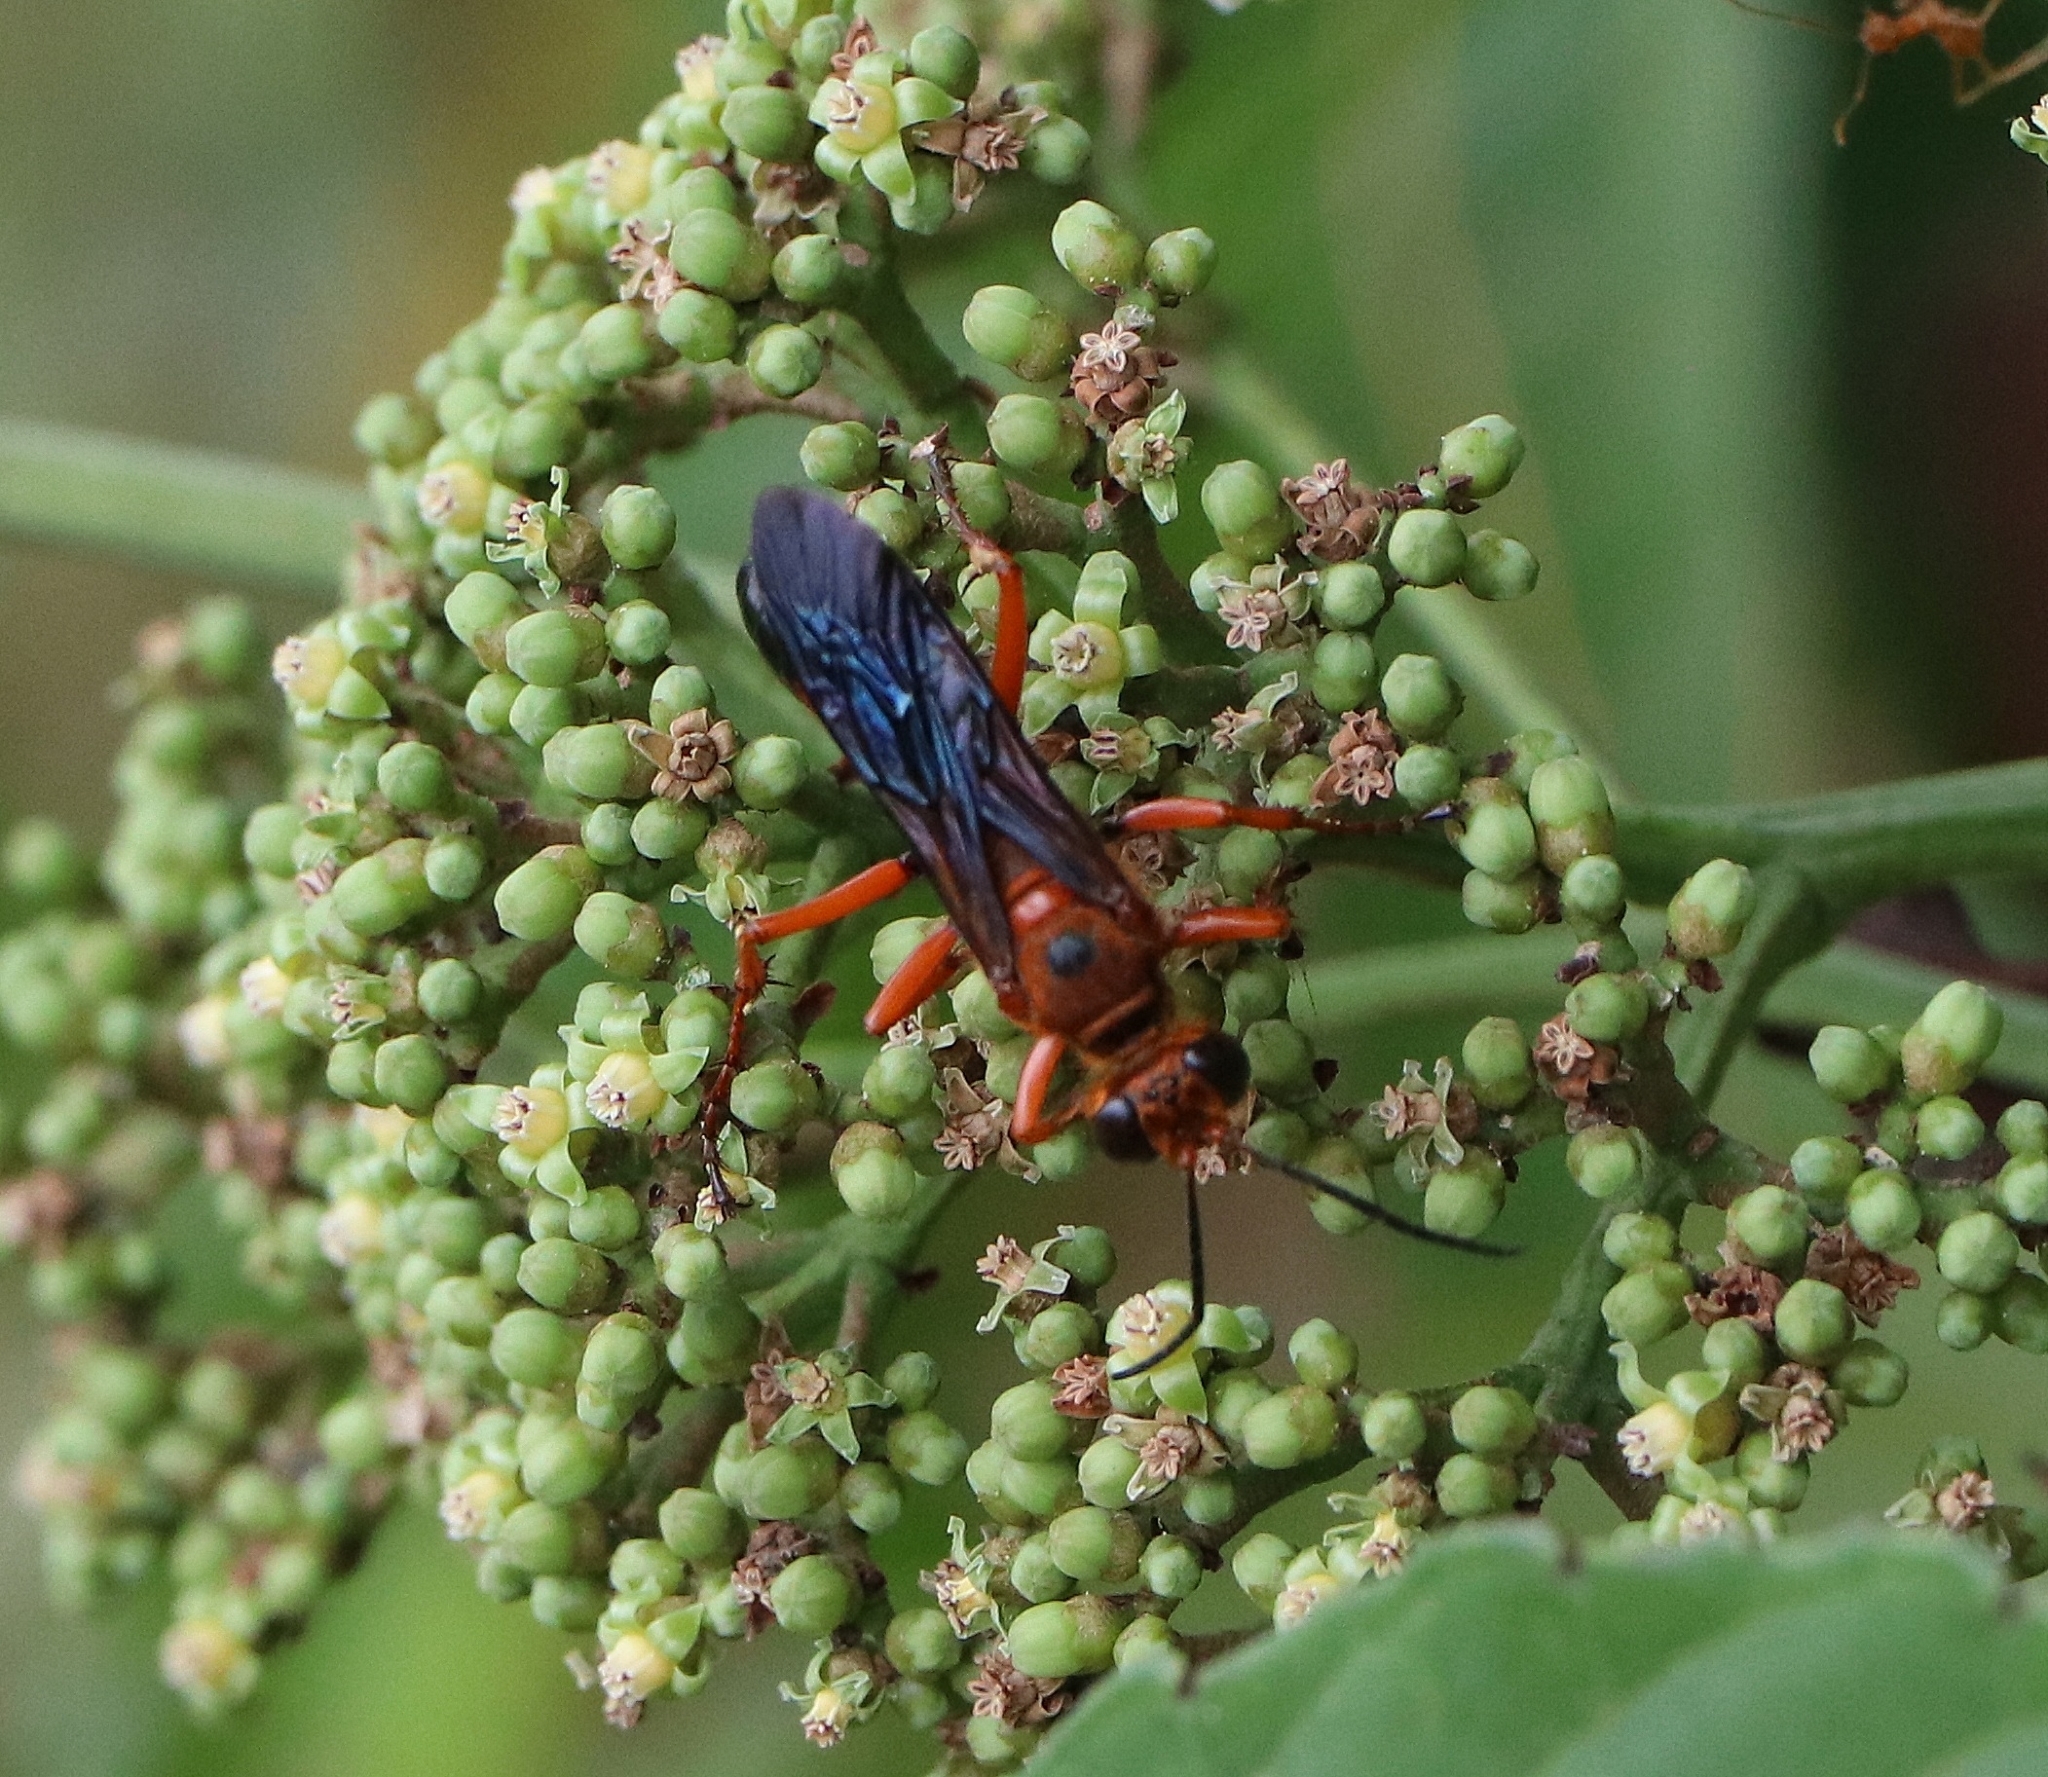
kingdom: Animalia
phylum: Arthropoda
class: Insecta
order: Hymenoptera
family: Sphecidae
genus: Sphex
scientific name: Sphex sericeus
